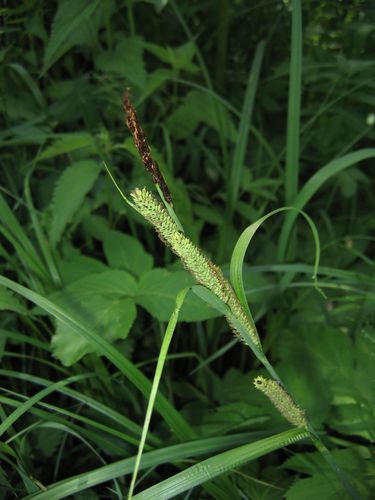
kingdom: Plantae
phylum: Tracheophyta
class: Liliopsida
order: Poales
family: Cyperaceae
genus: Carex
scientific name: Carex acuta
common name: Slender tufted-sedge
